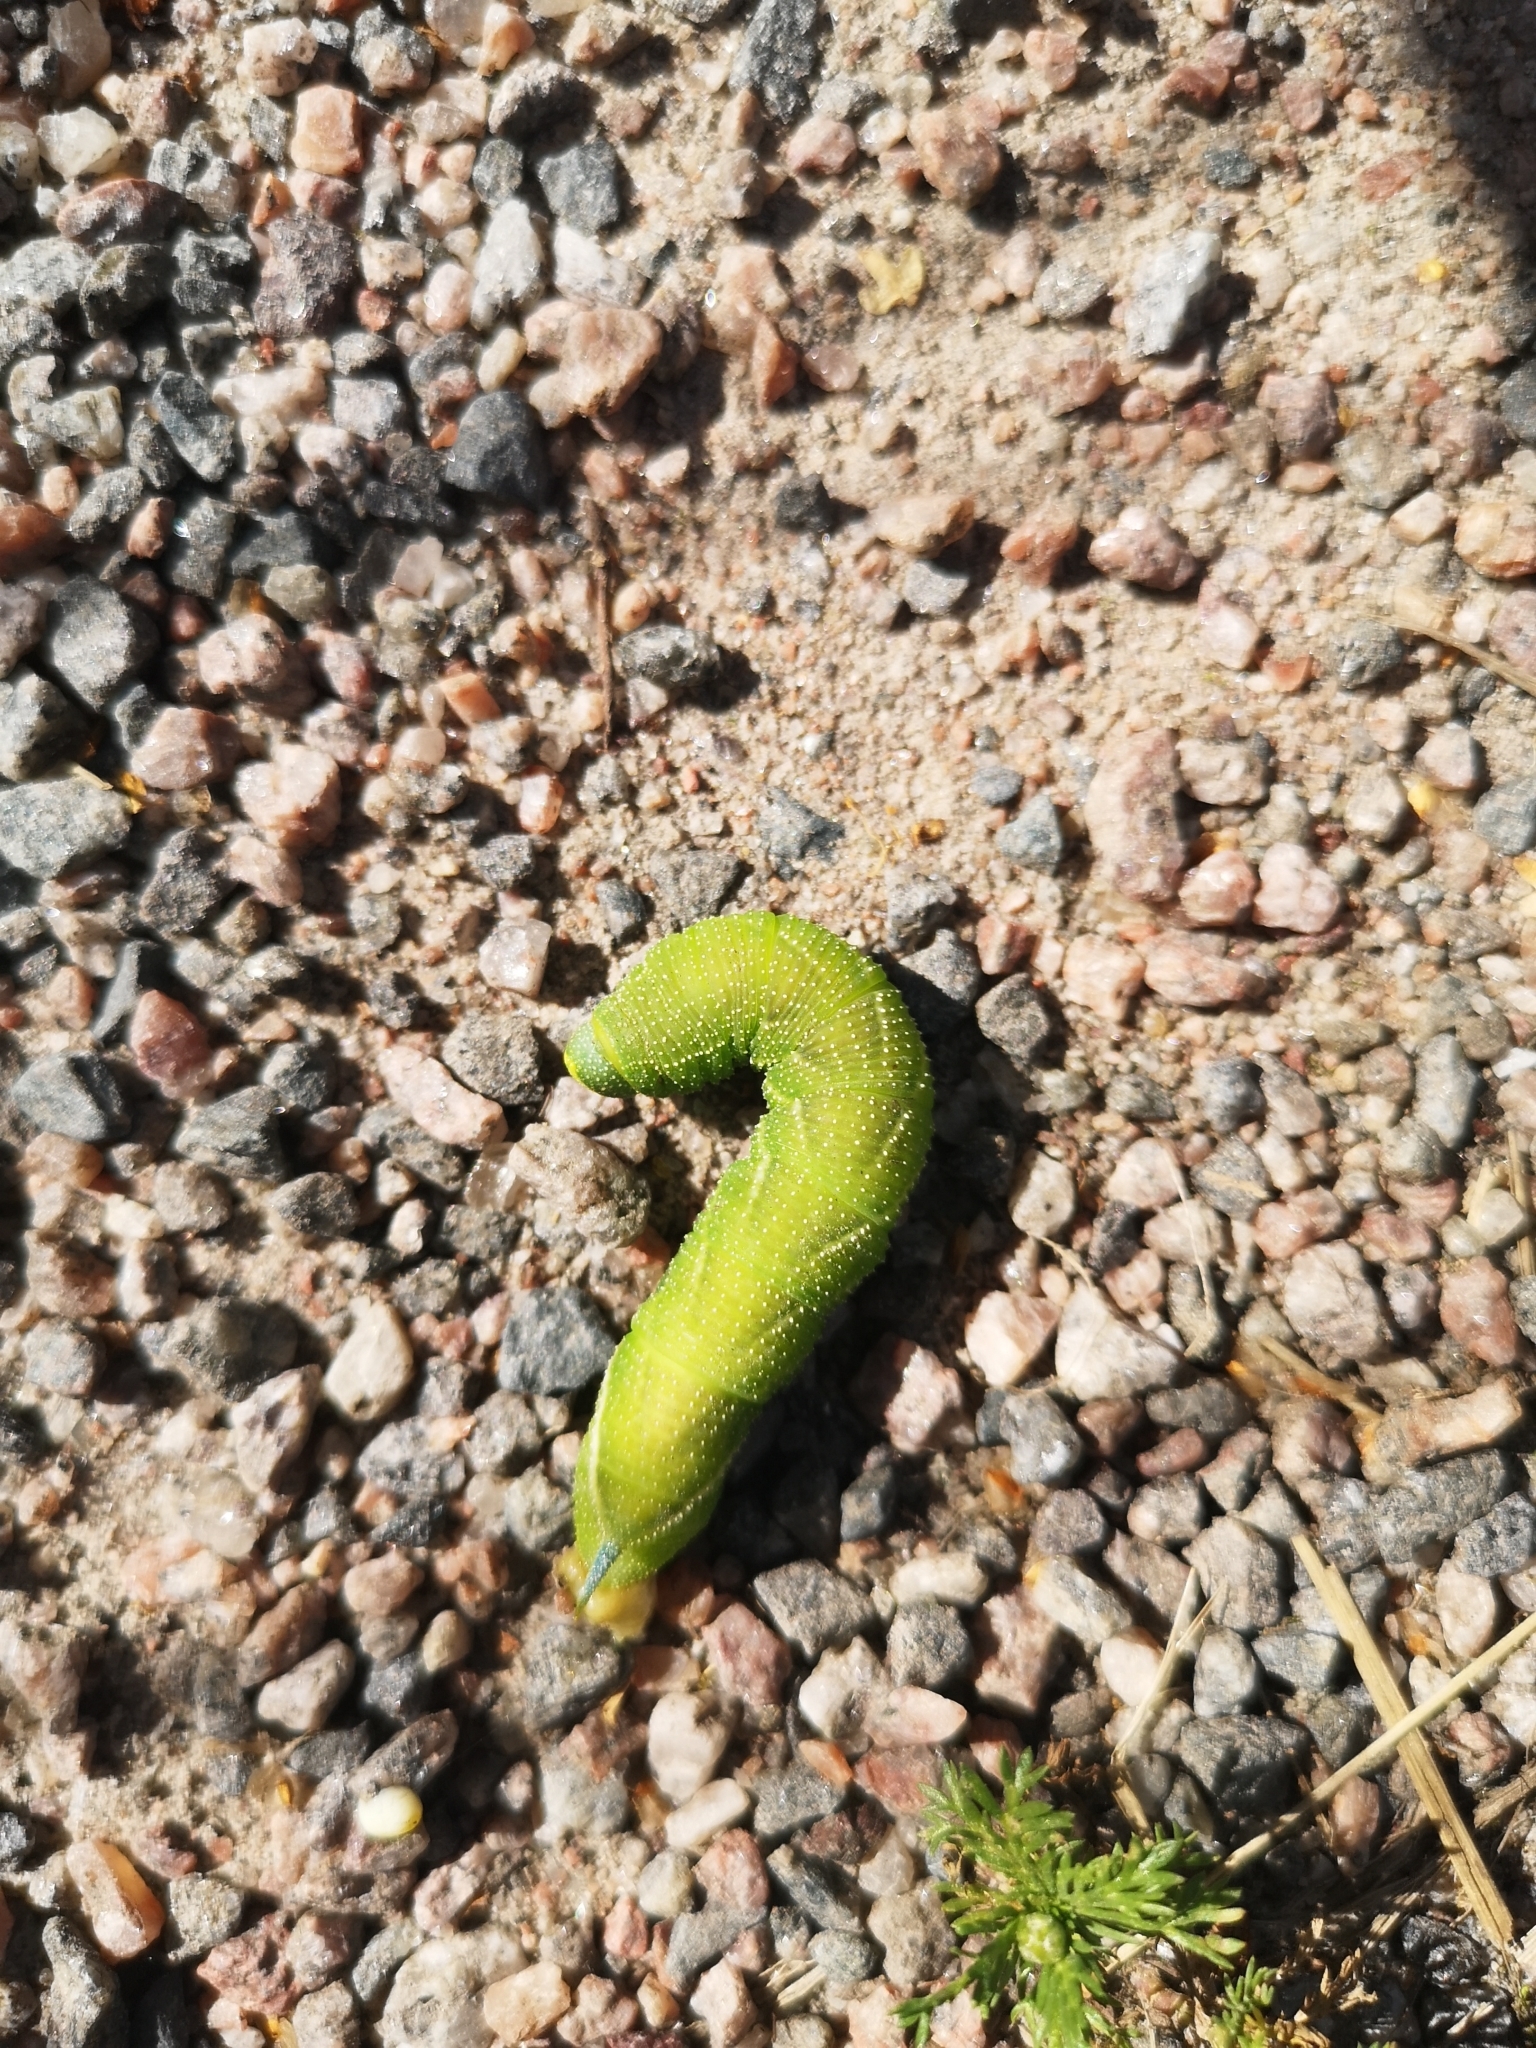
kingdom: Animalia
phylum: Arthropoda
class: Insecta
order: Lepidoptera
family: Sphingidae
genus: Smerinthus
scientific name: Smerinthus ocellata
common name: Eyed hawk-moth
